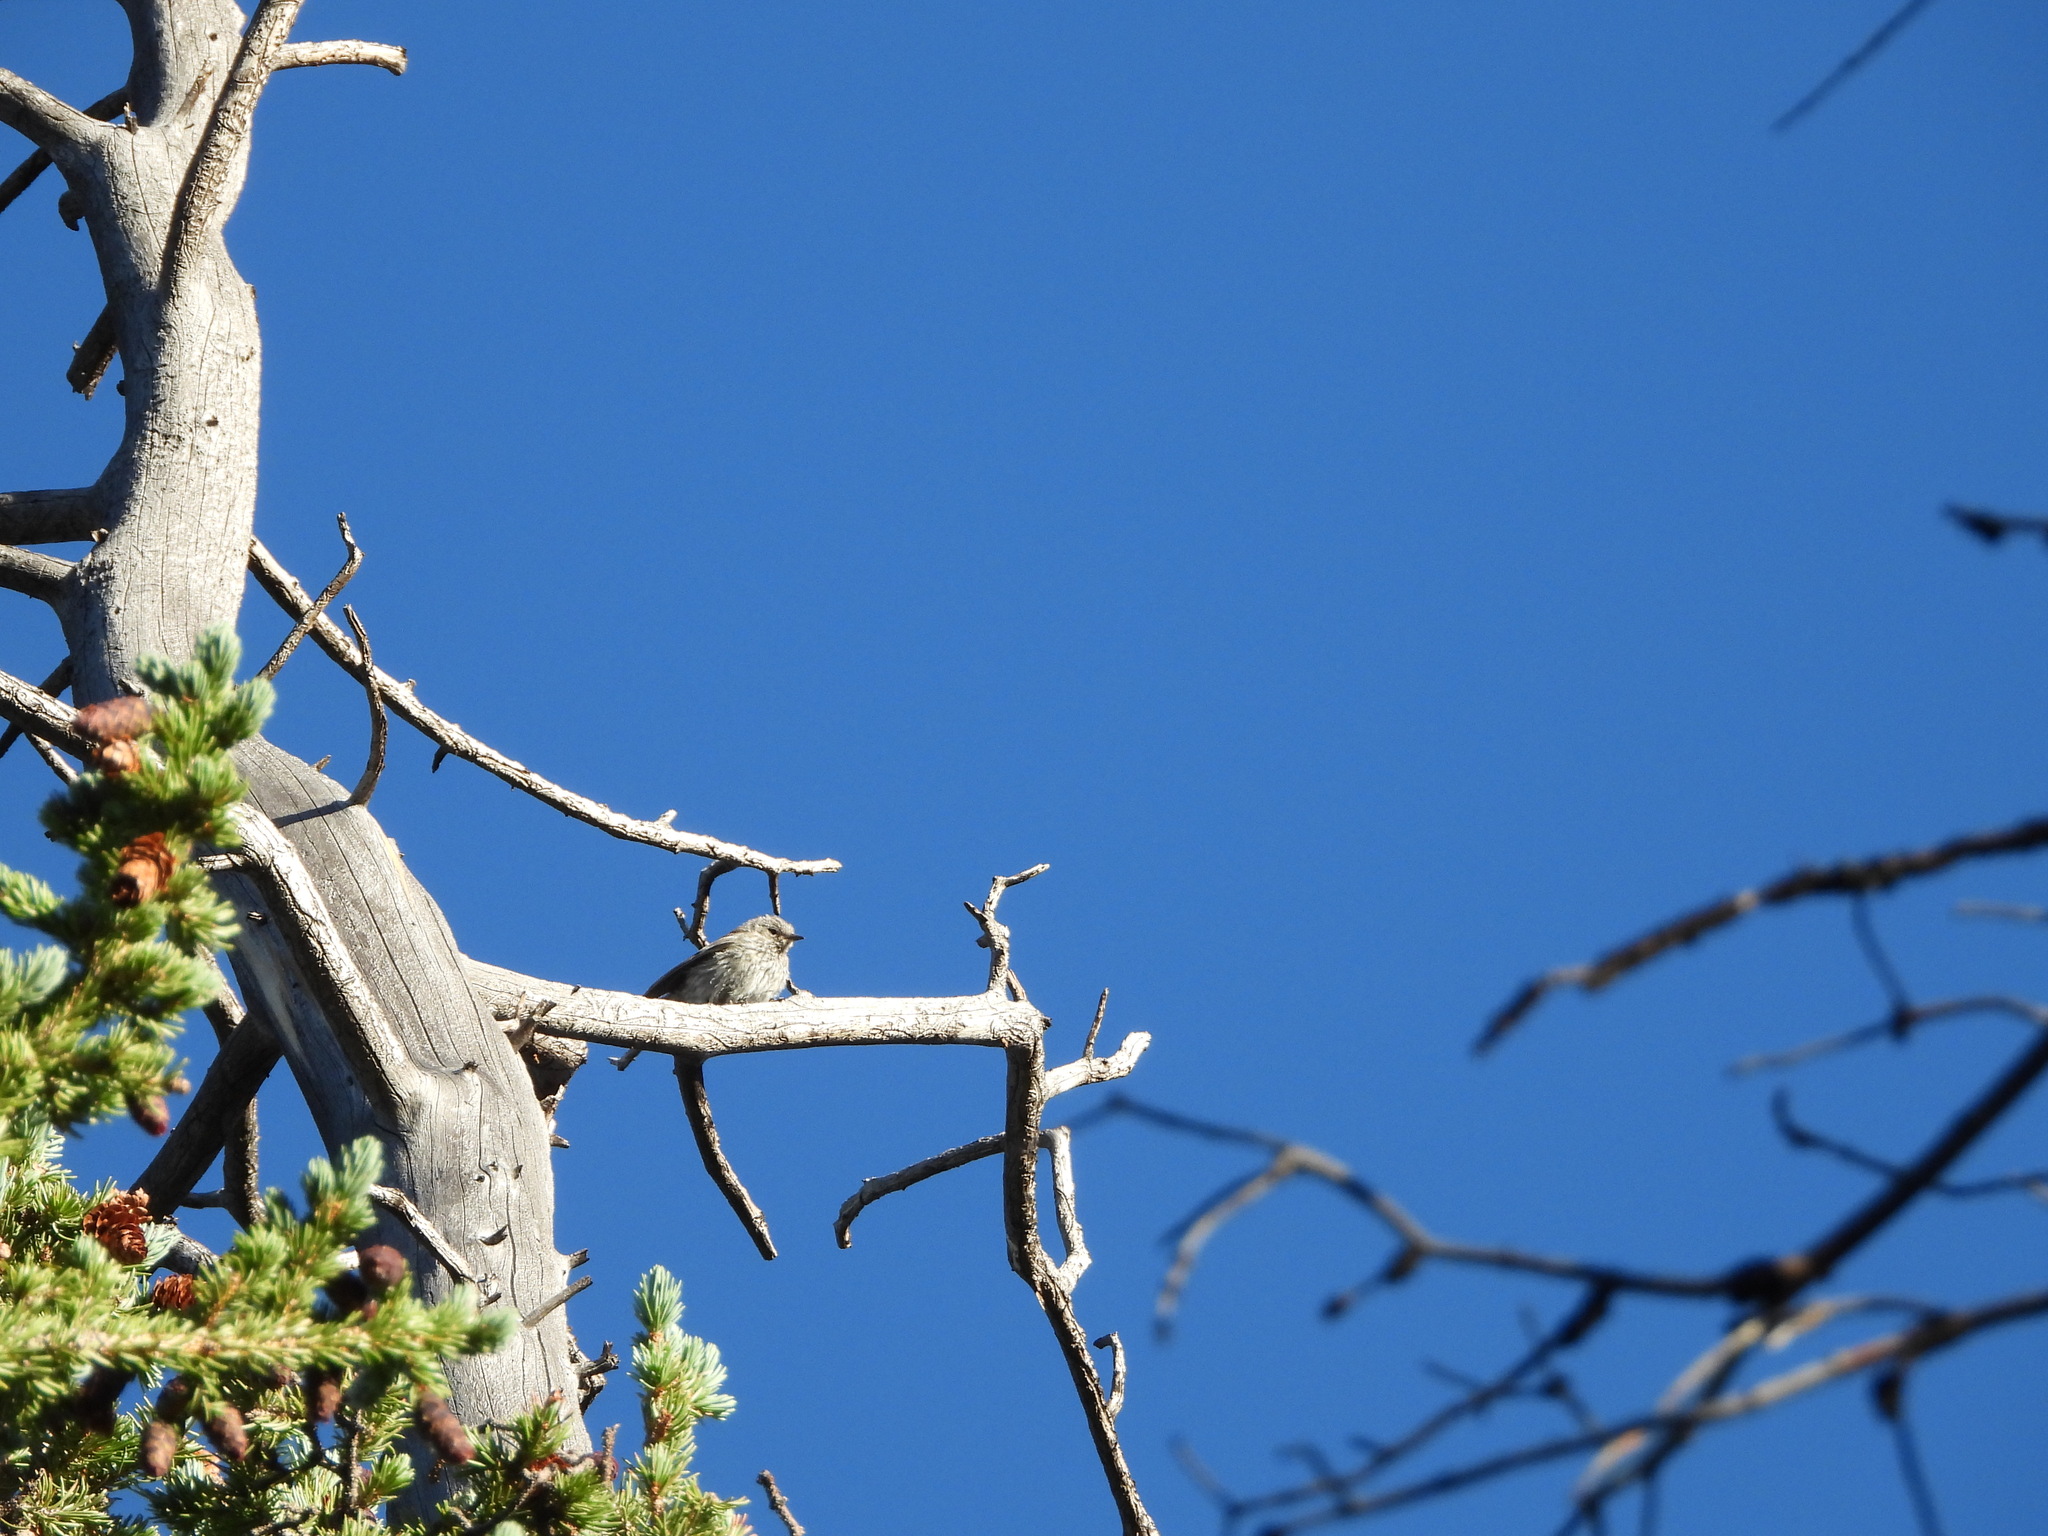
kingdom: Animalia
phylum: Chordata
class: Aves
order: Passeriformes
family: Fringillidae
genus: Spinus
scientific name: Spinus pinus
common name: Pine siskin
